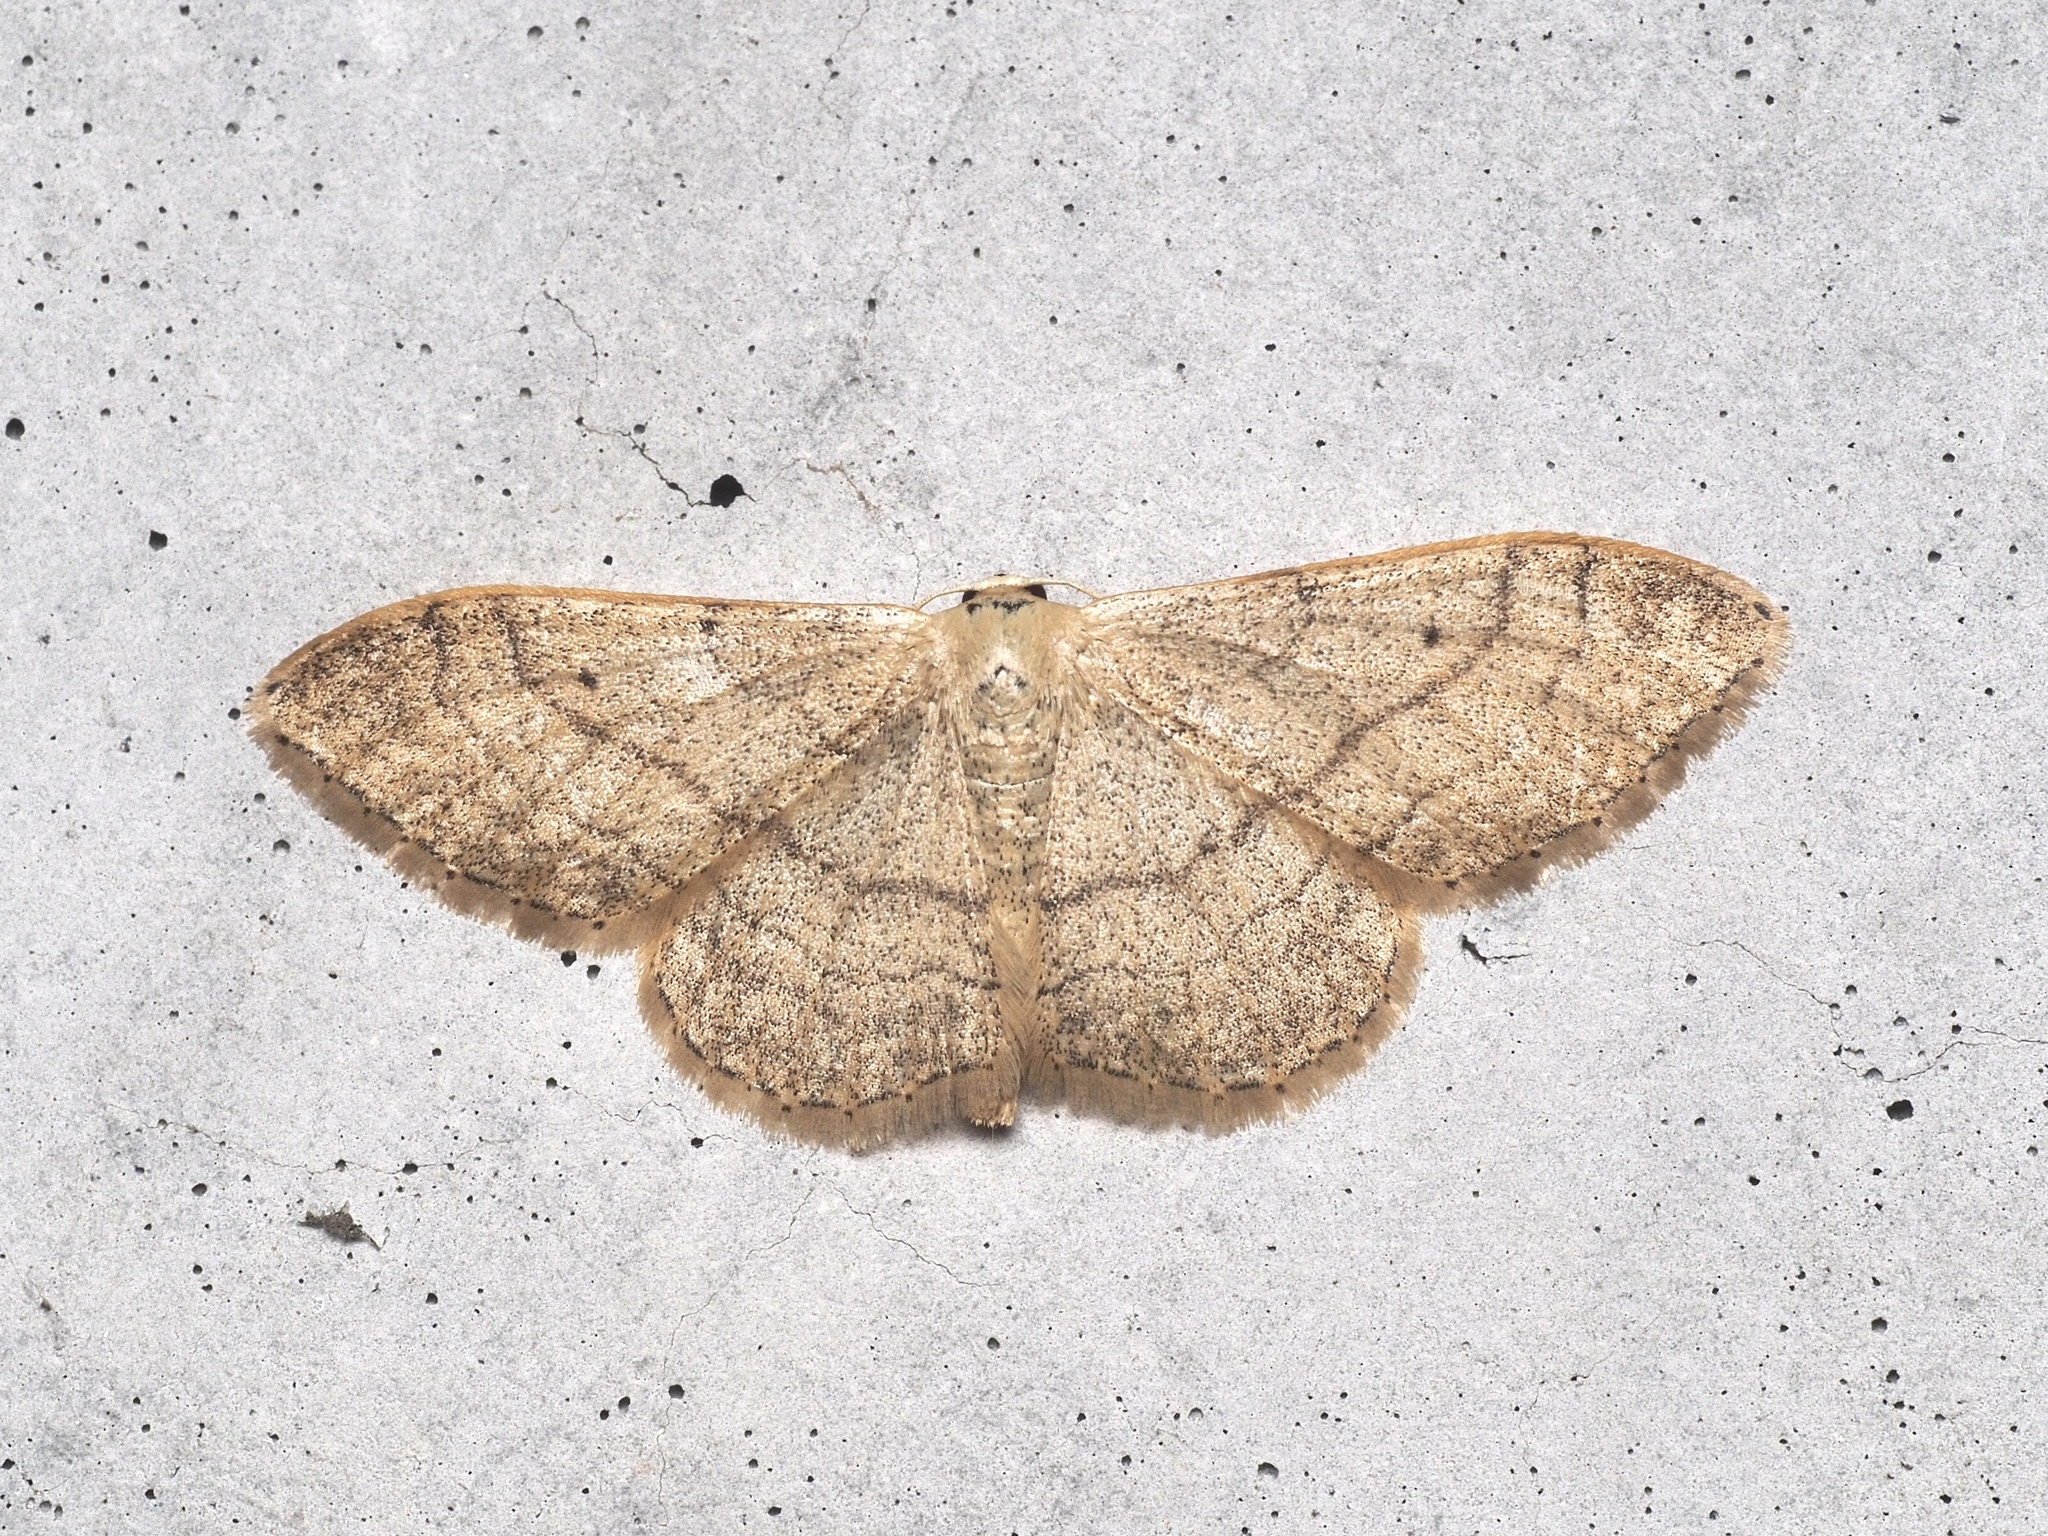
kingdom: Animalia
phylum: Arthropoda
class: Insecta
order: Lepidoptera
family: Geometridae
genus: Idaea
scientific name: Idaea aversata
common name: Riband wave
